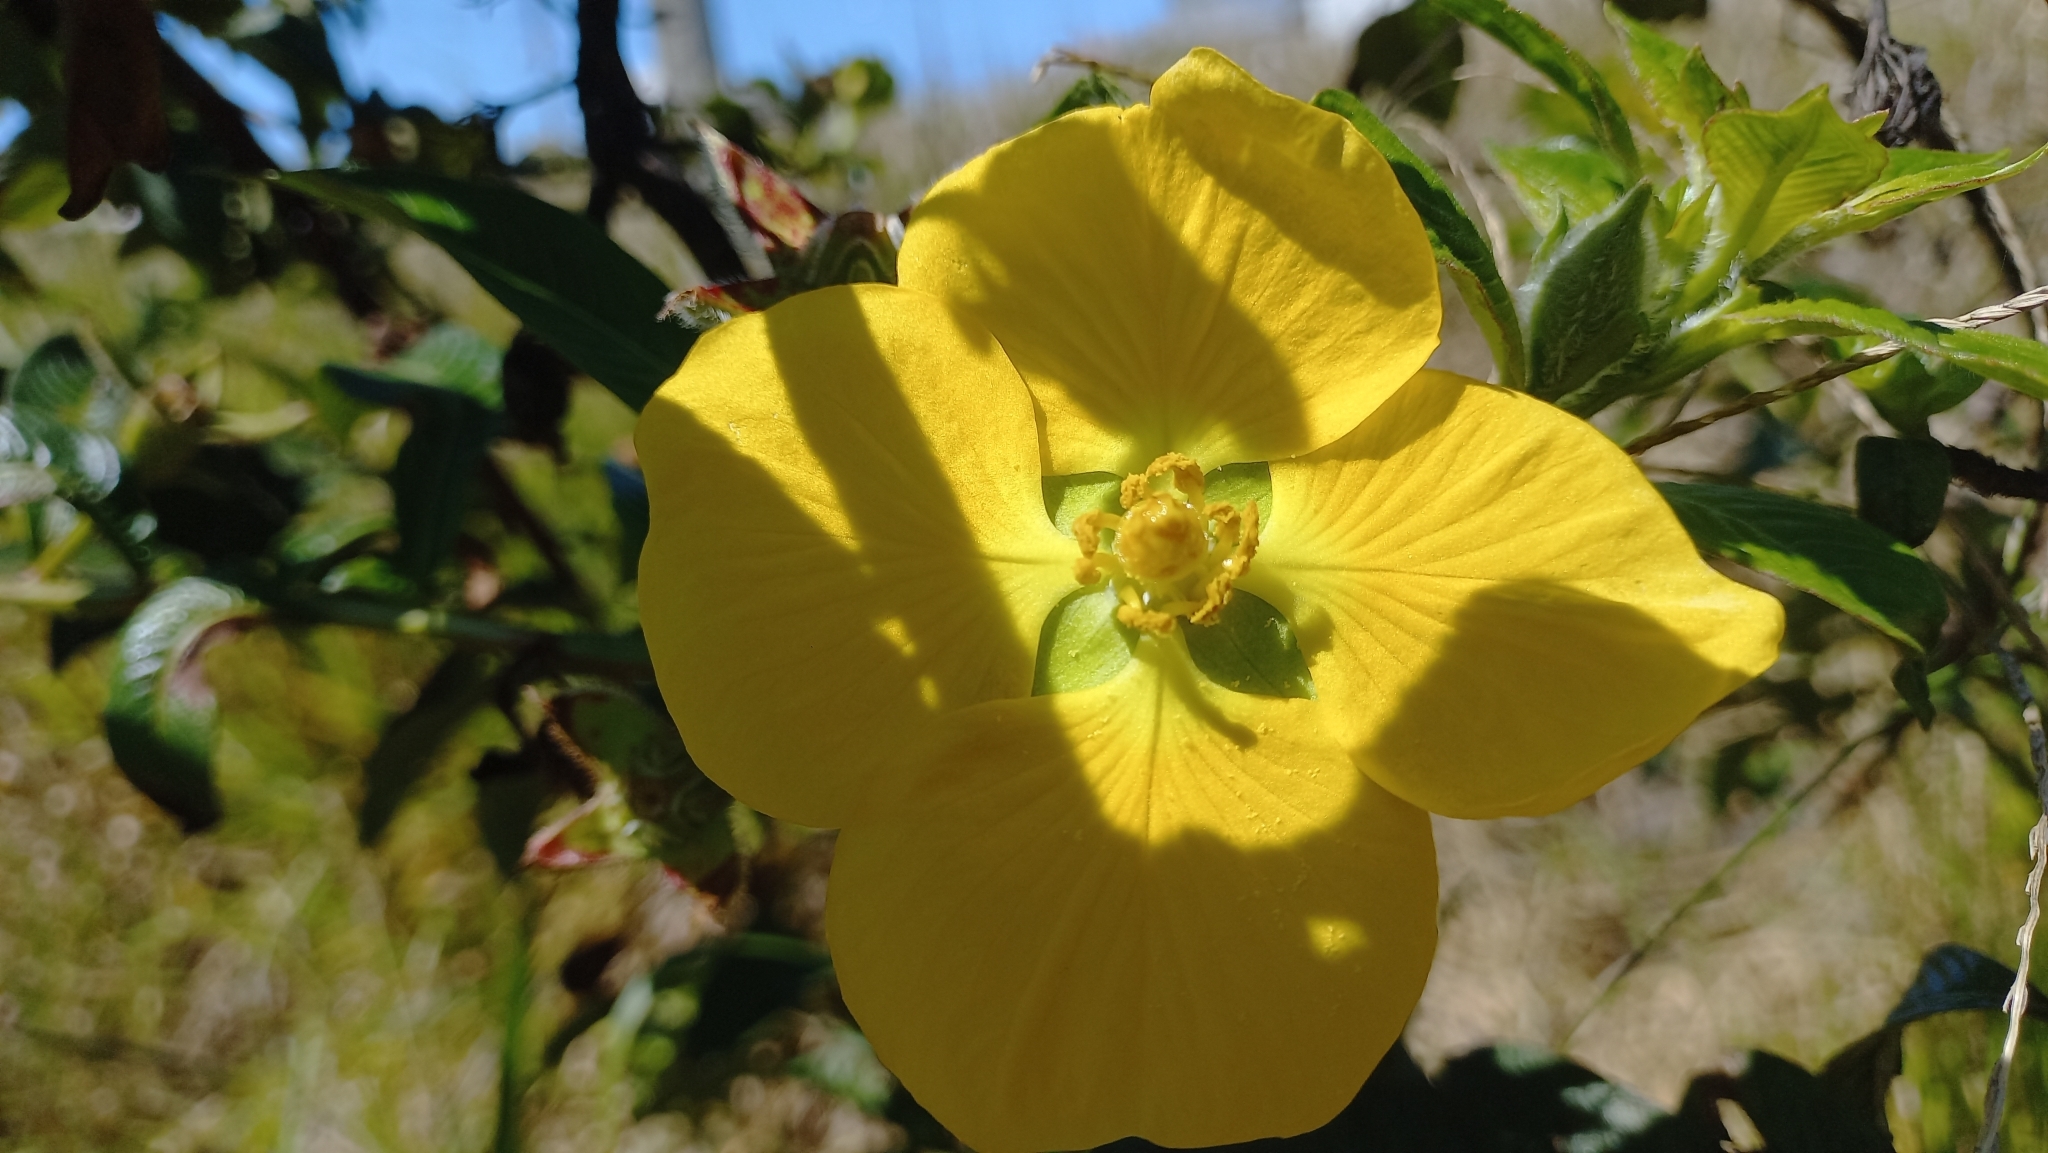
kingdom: Plantae
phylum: Tracheophyta
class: Magnoliopsida
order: Myrtales
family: Onagraceae
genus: Ludwigia
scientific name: Ludwigia multinervia
